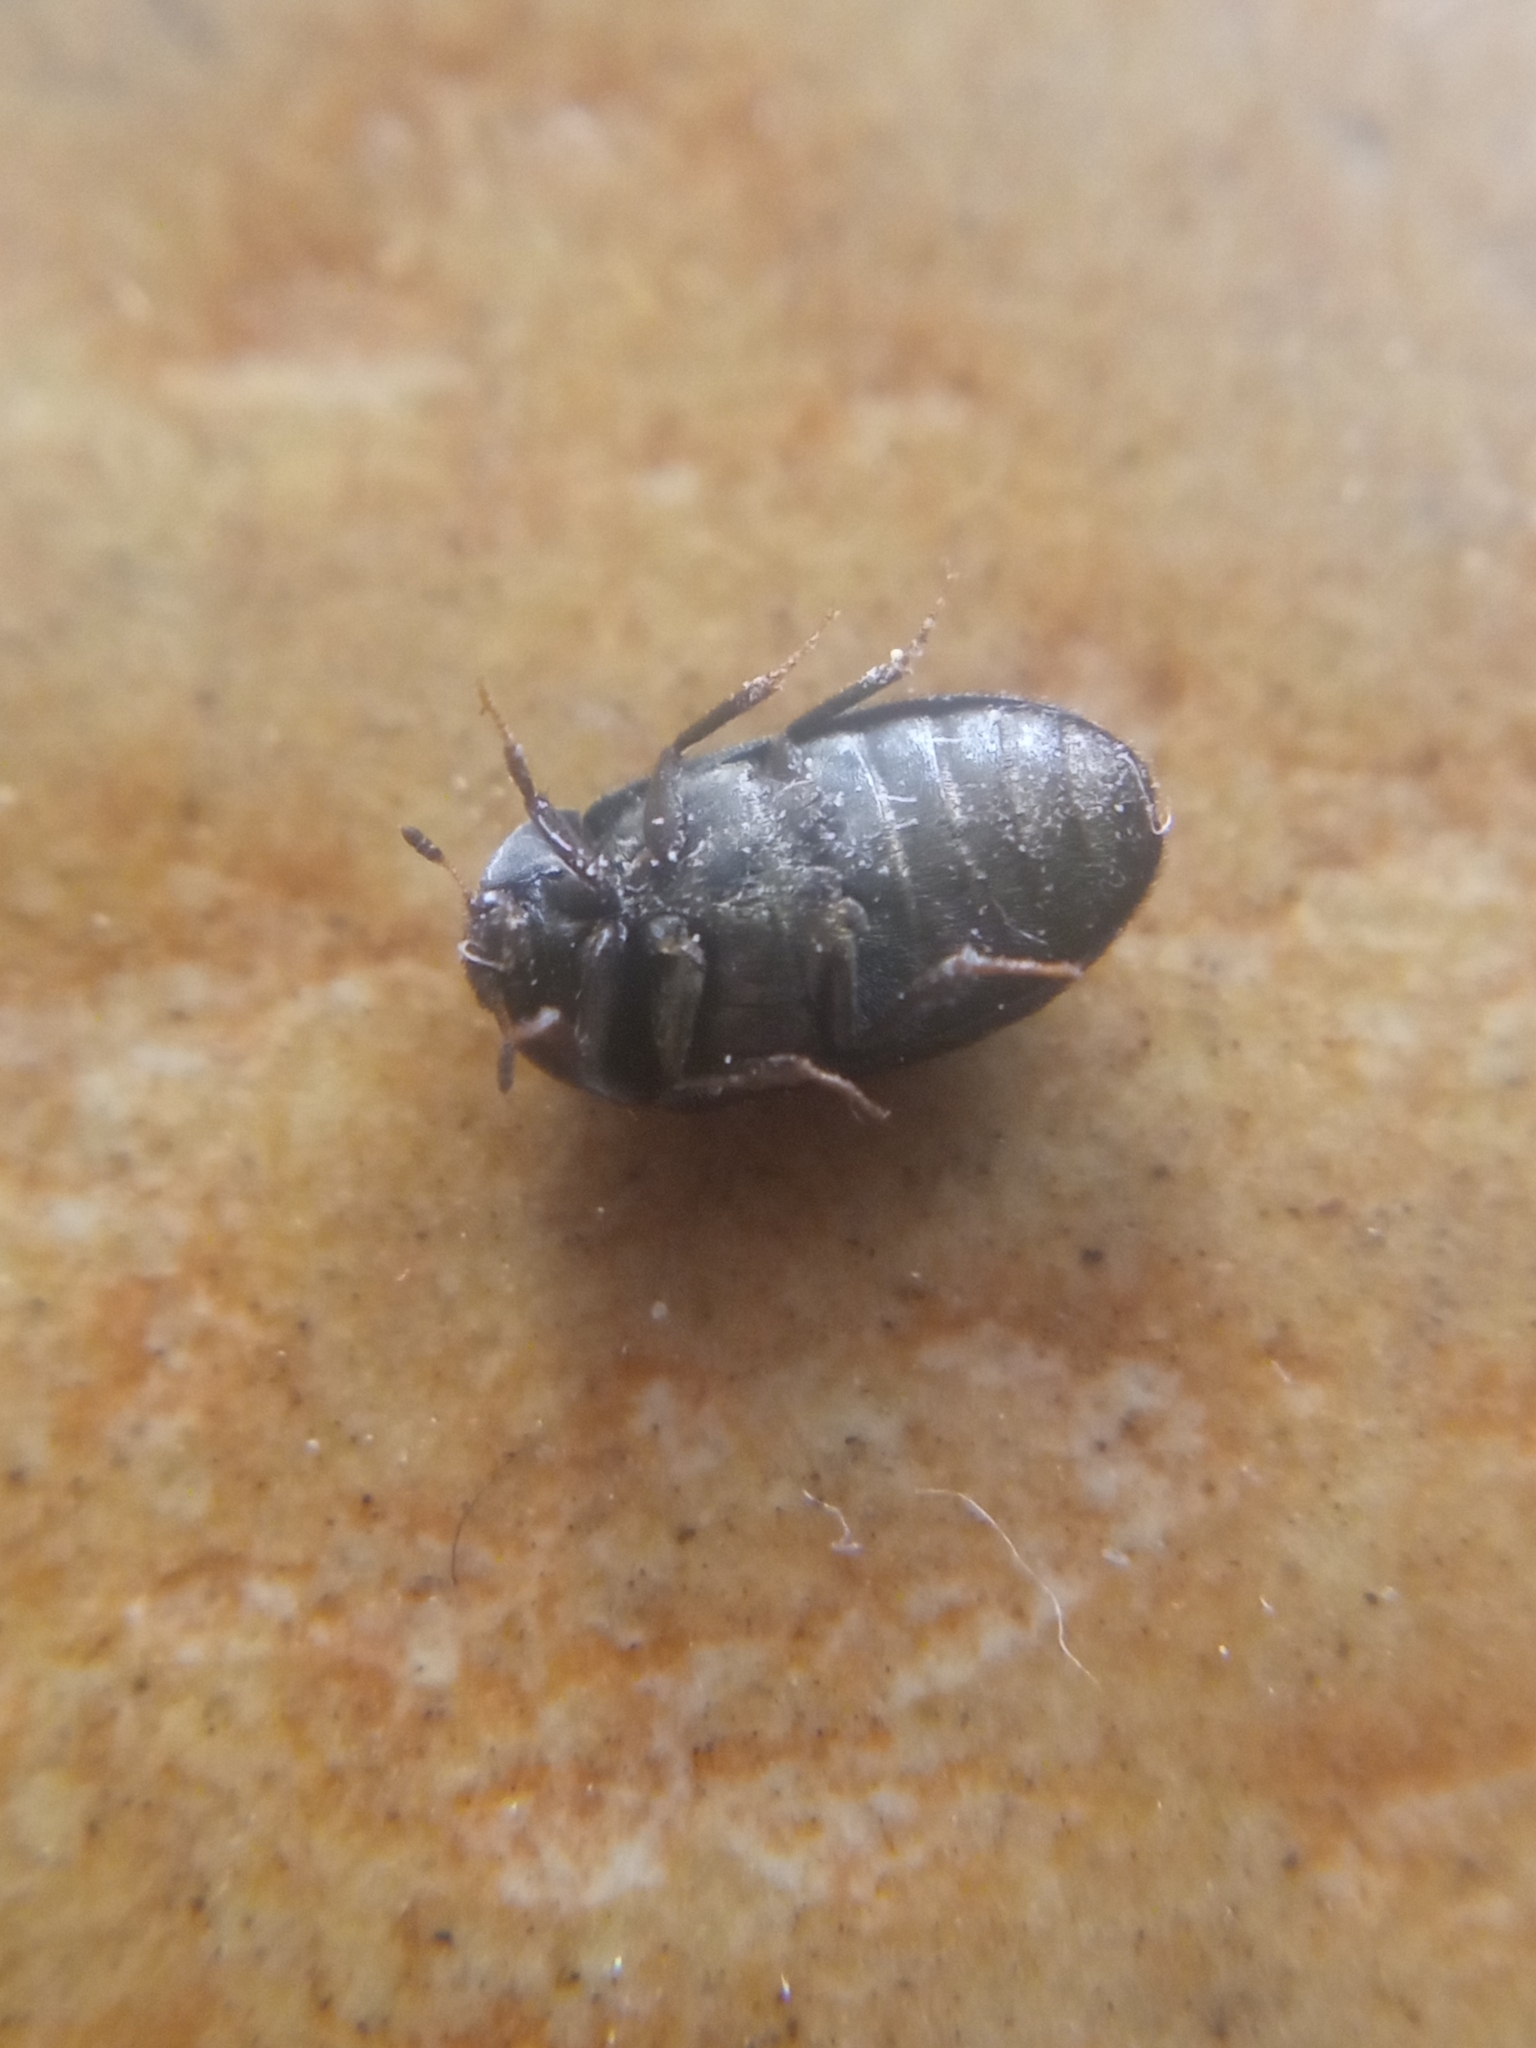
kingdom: Animalia
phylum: Arthropoda
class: Insecta
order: Coleoptera
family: Dermestidae
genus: Attagenus
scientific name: Attagenus pellio
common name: Two-spotted carpet beetle
